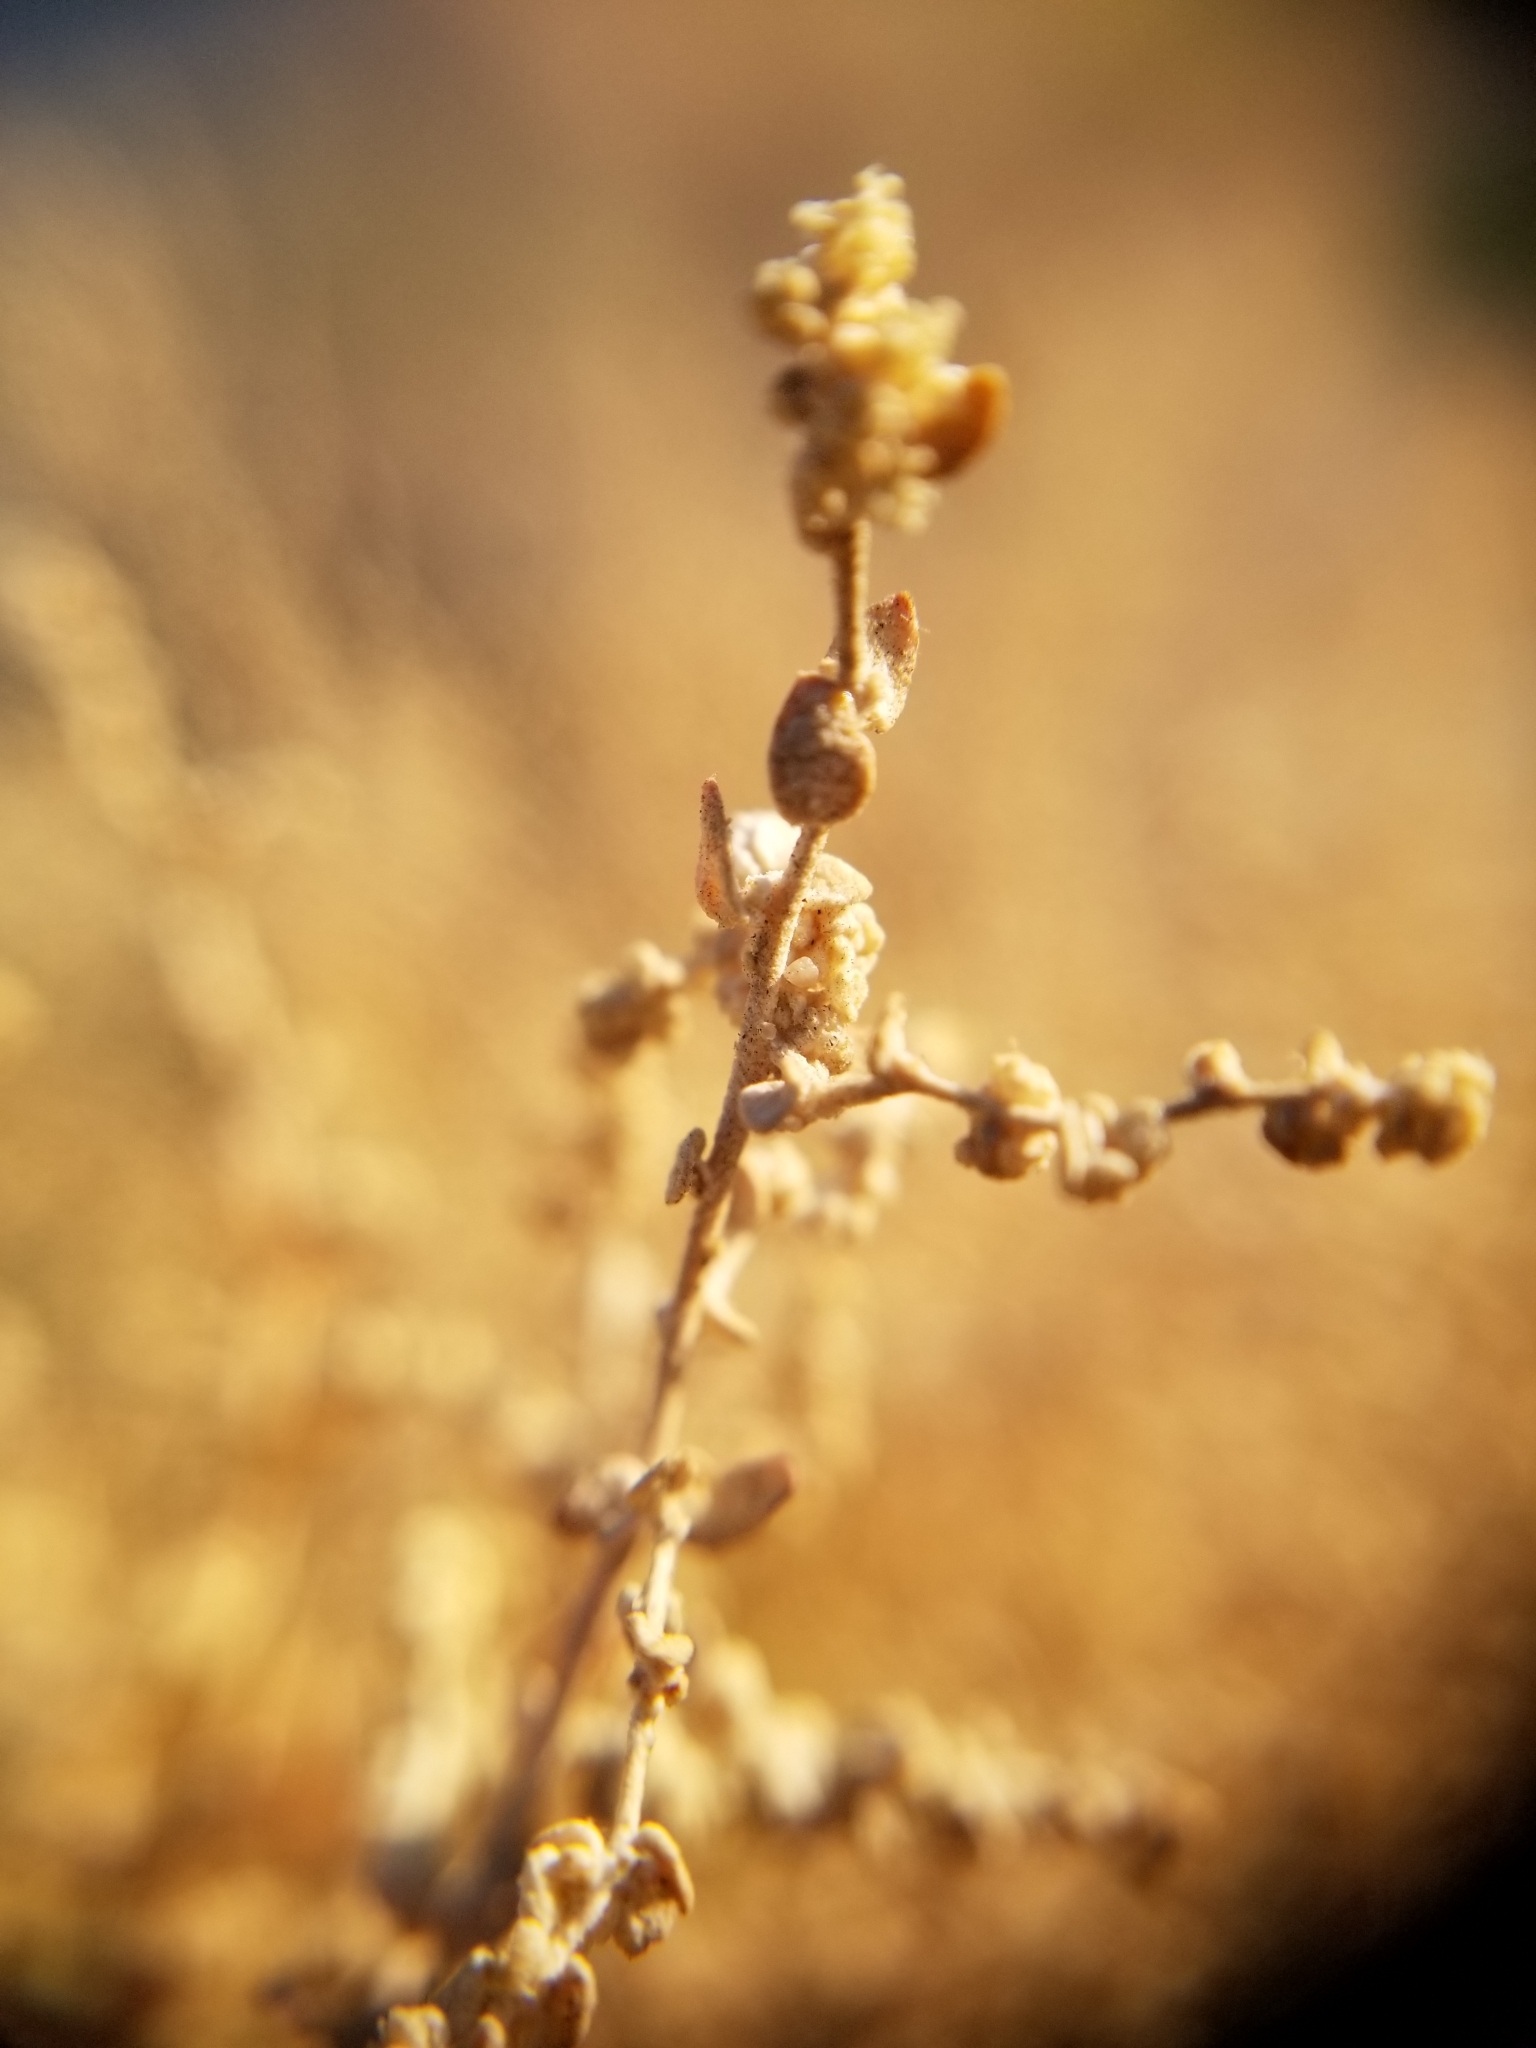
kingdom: Plantae
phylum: Tracheophyta
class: Magnoliopsida
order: Caryophyllales
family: Amaranthaceae
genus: Atriplex
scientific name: Atriplex polycarpa
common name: Desert saltbush
